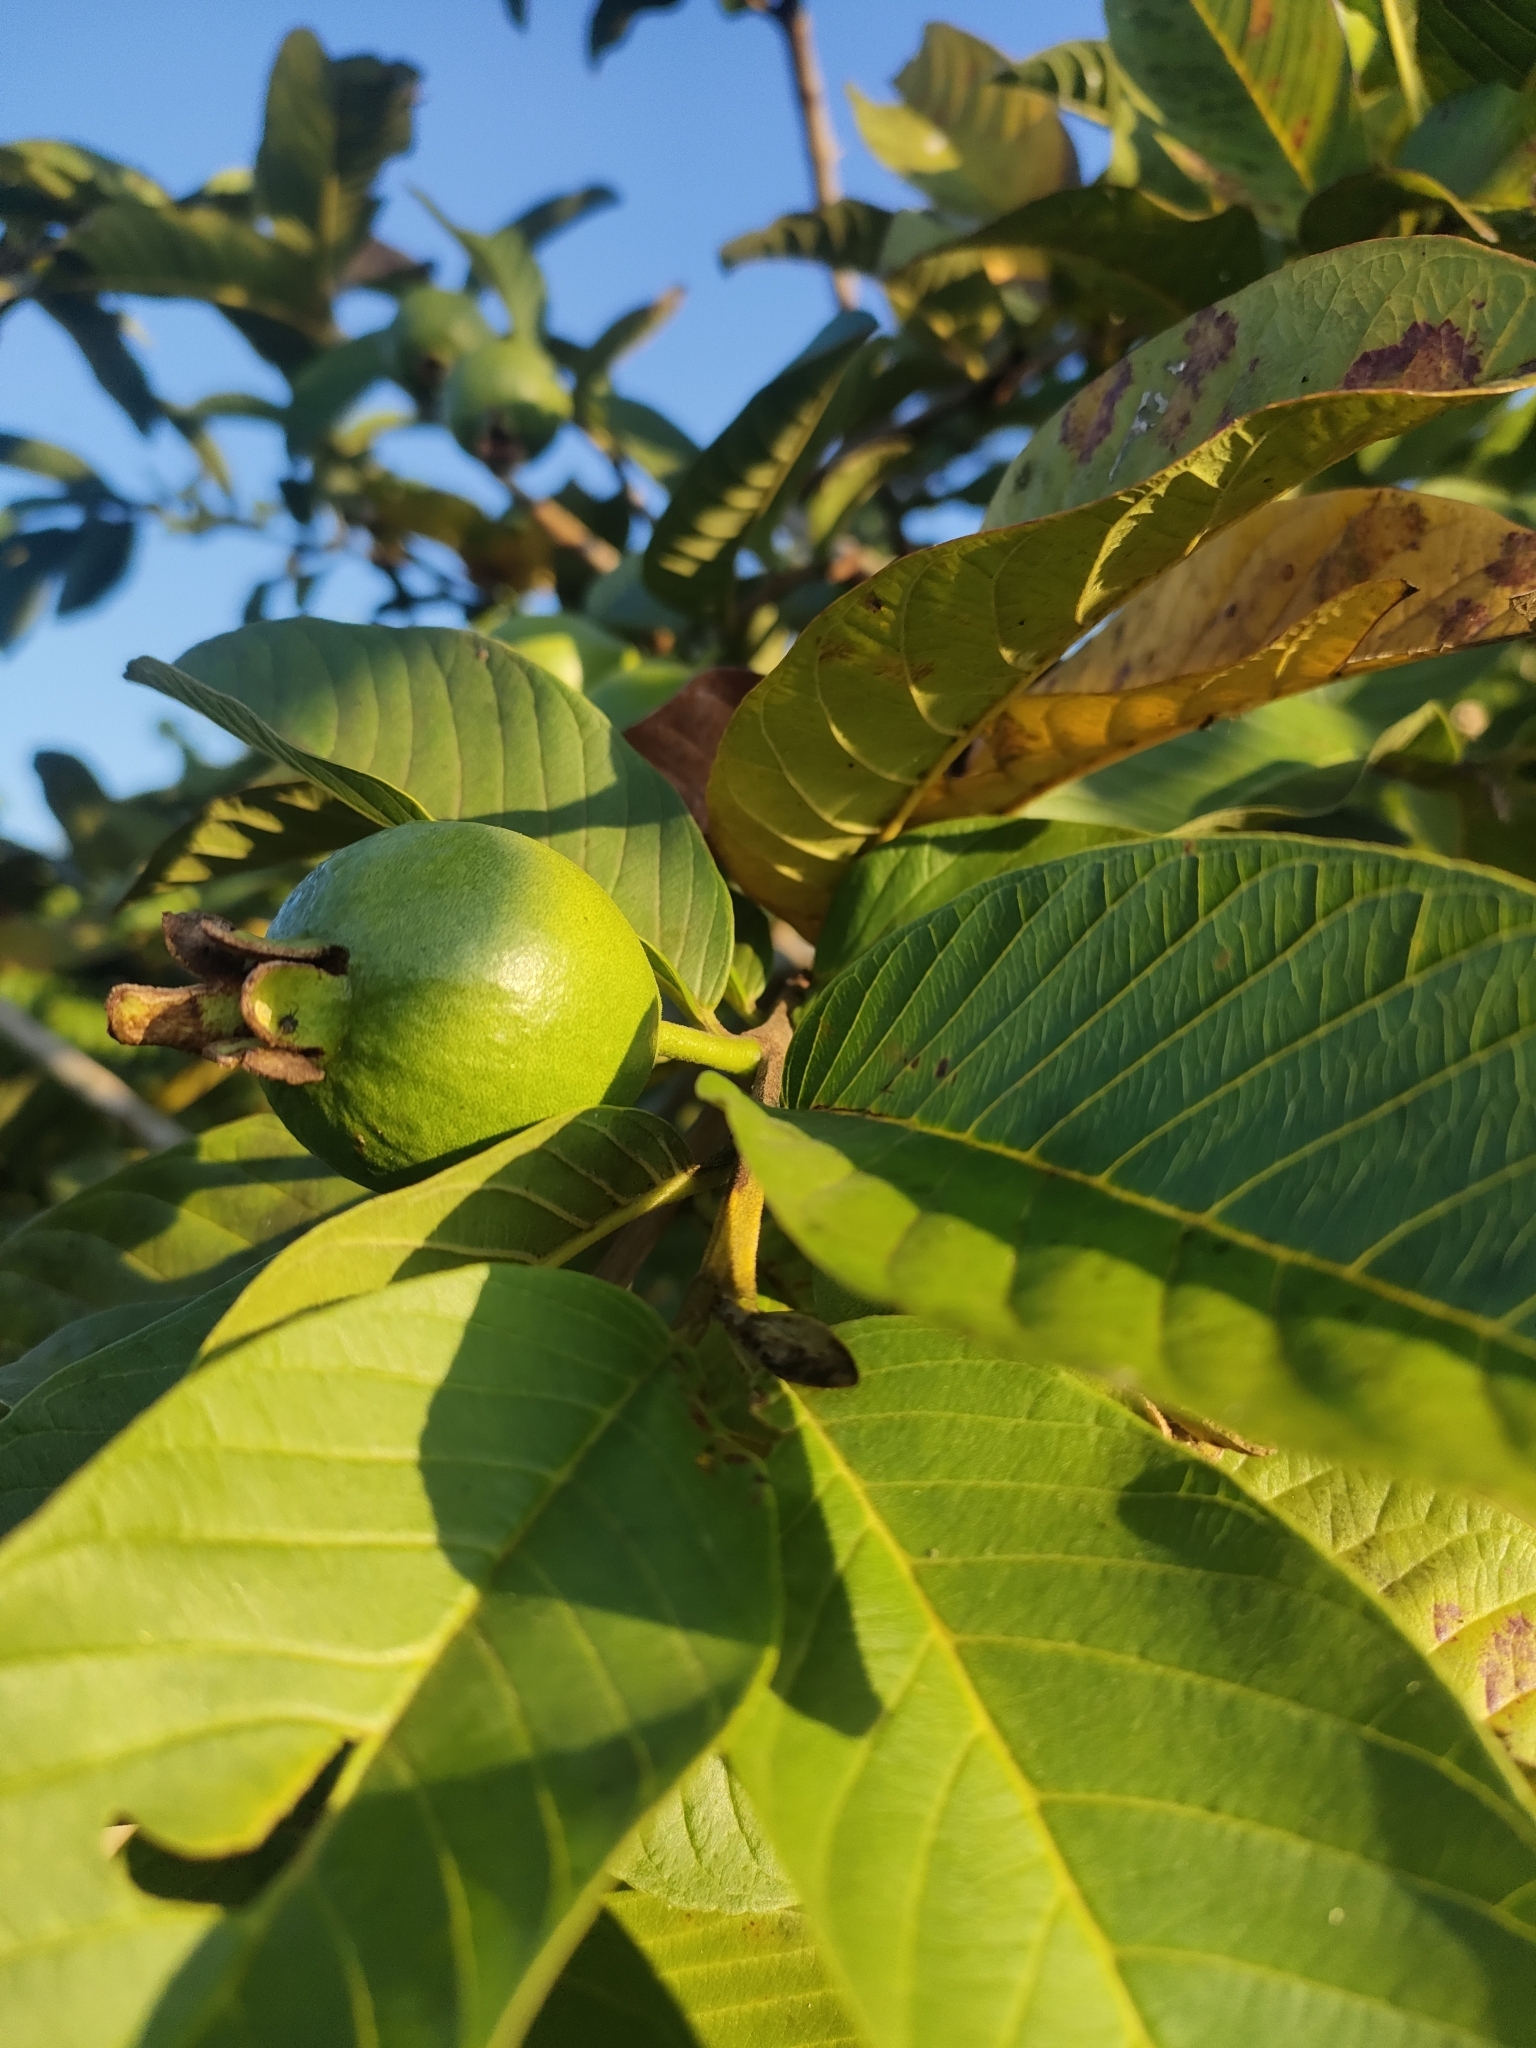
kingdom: Plantae
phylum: Tracheophyta
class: Magnoliopsida
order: Myrtales
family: Myrtaceae
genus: Psidium
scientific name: Psidium guajava
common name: Guava
